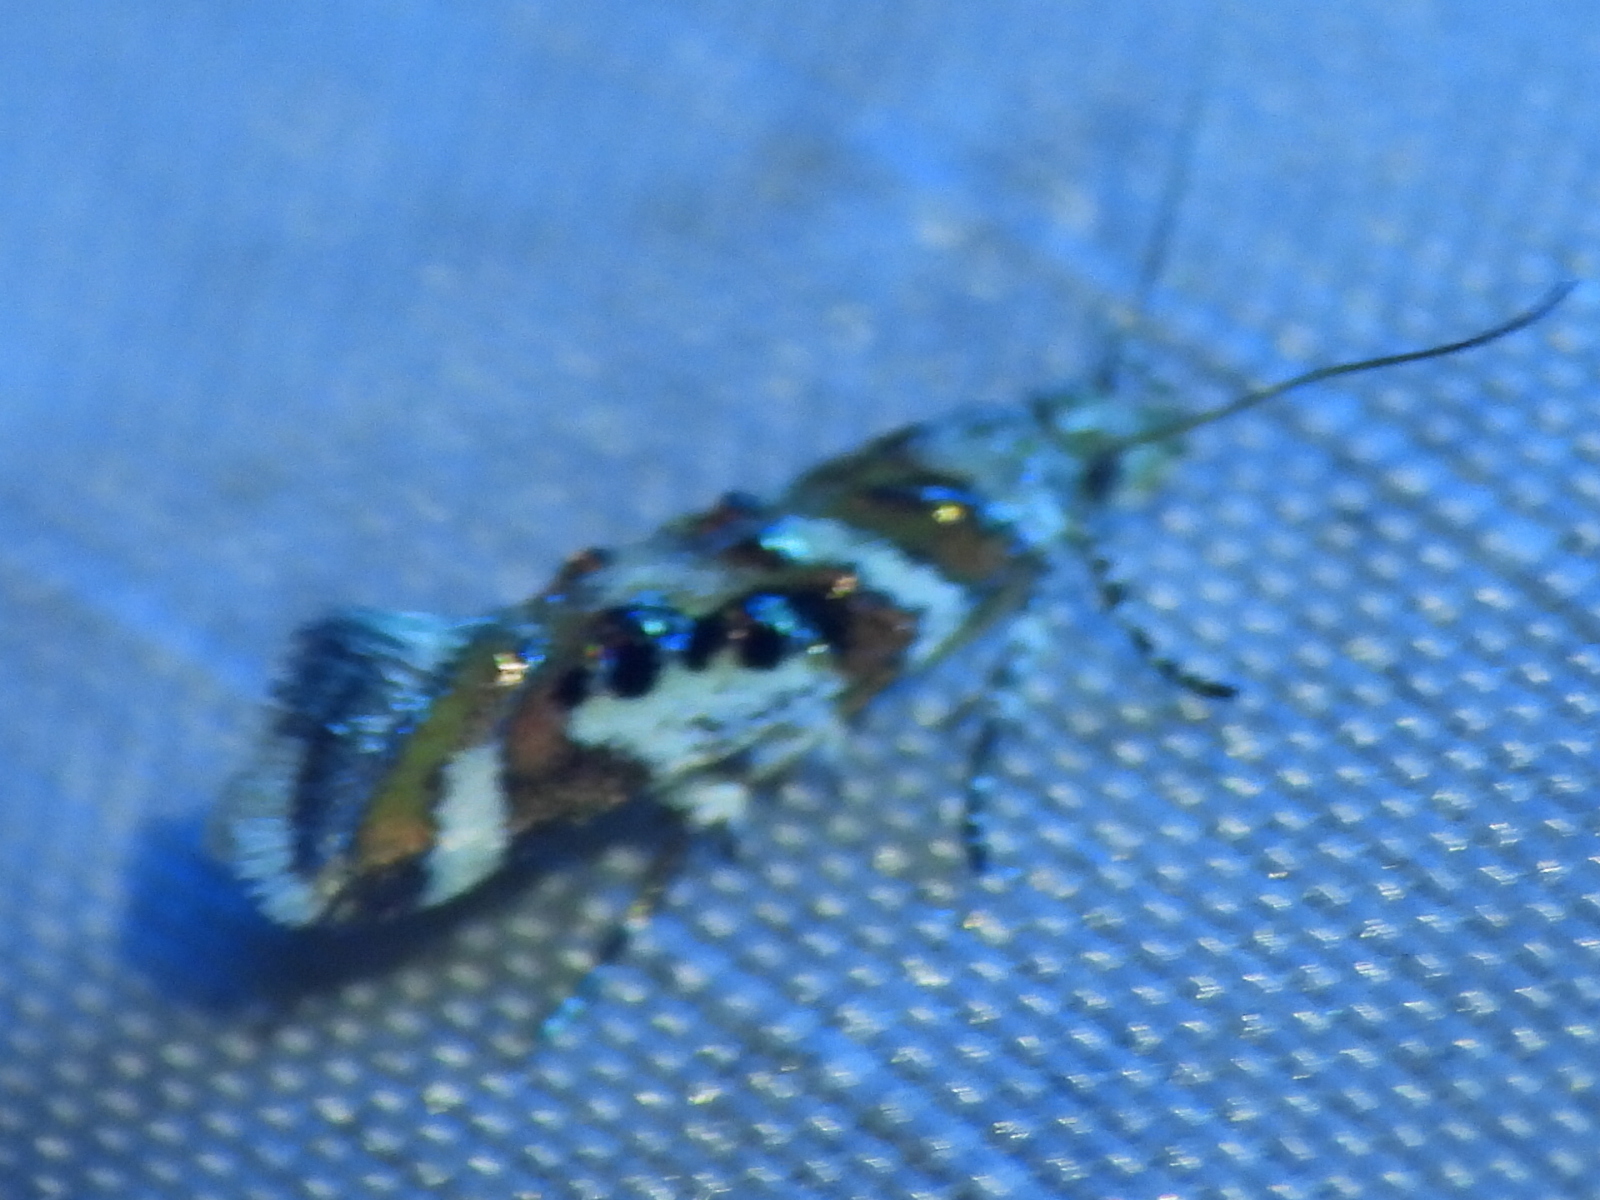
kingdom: Animalia
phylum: Arthropoda
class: Insecta
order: Lepidoptera
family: Gelechiidae
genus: Aristotelia
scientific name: Aristotelia elegantella
